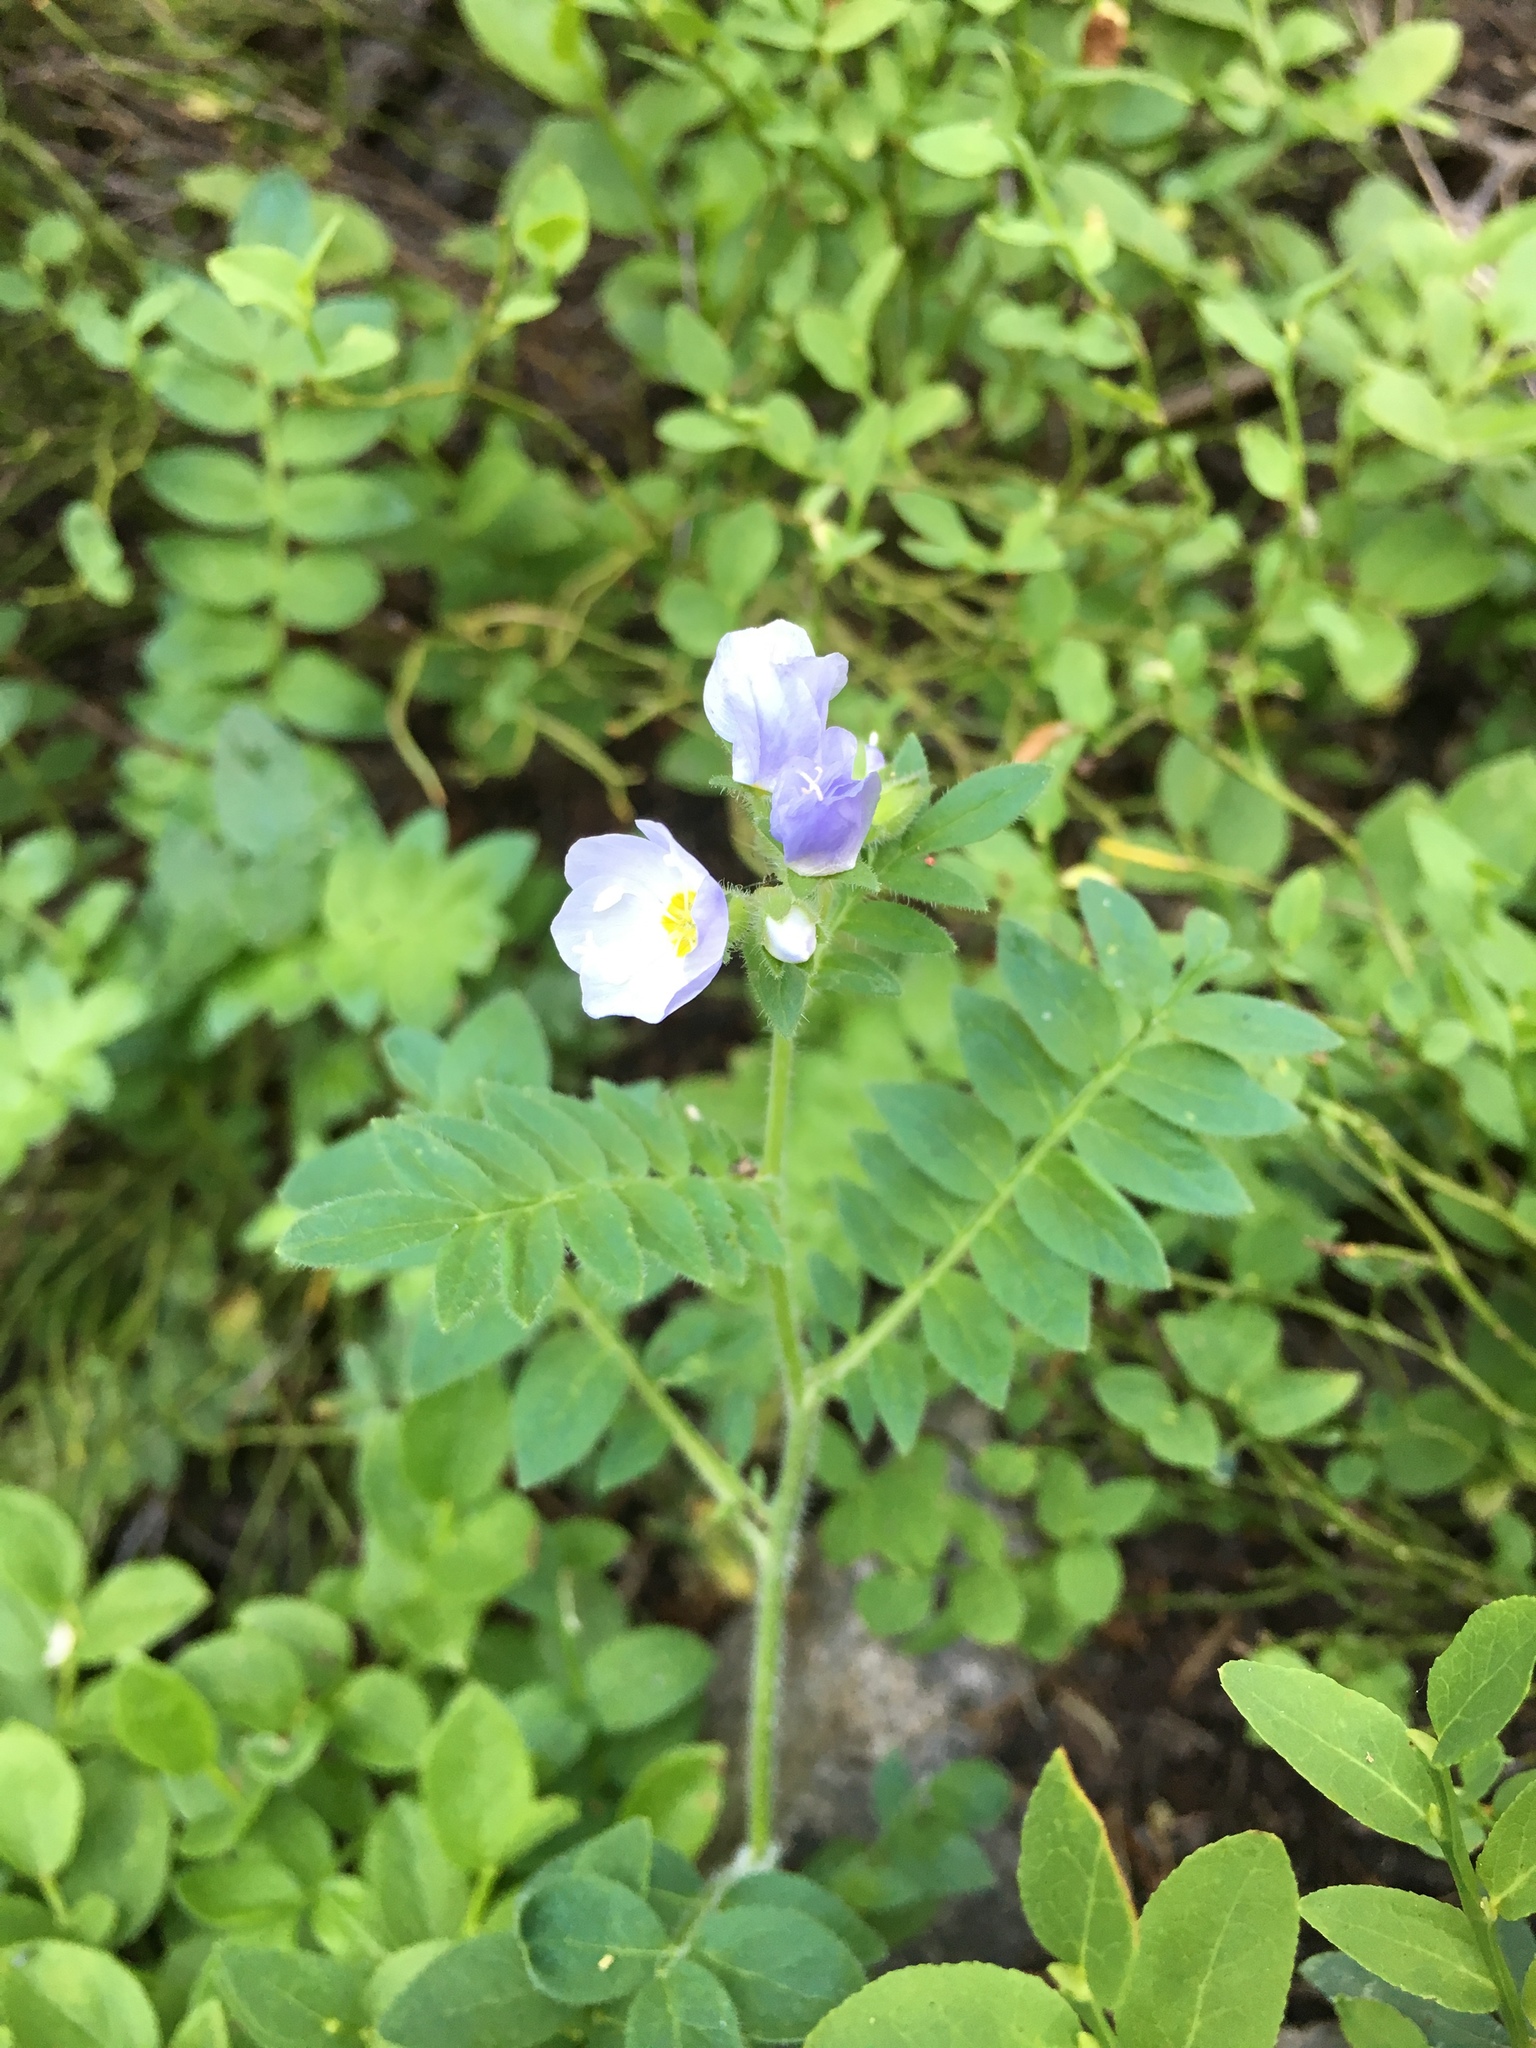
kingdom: Plantae
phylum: Tracheophyta
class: Magnoliopsida
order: Ericales
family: Polemoniaceae
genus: Polemonium
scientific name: Polemonium pulcherrimum
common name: Short jacob's-ladder
